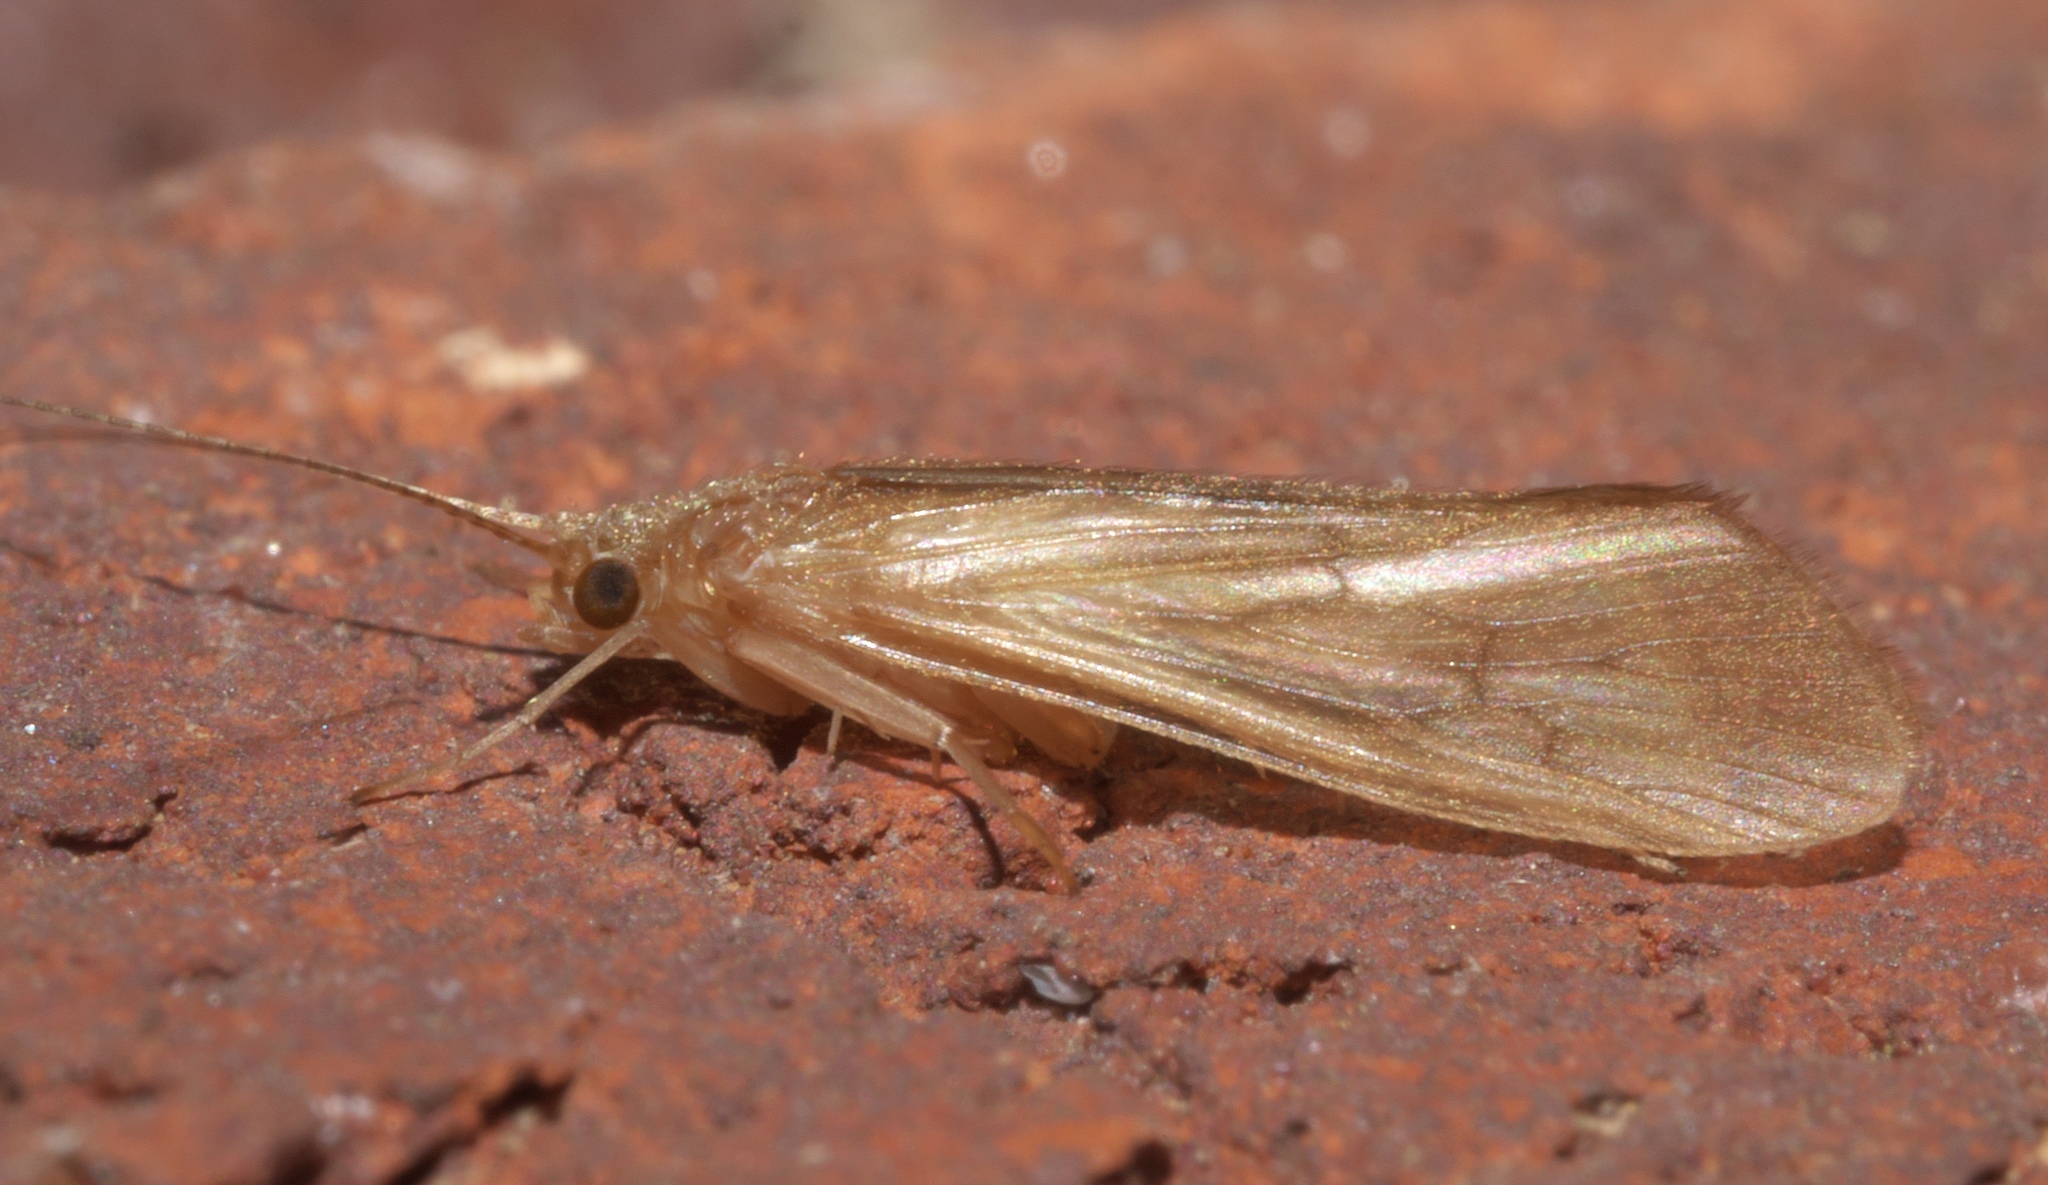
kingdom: Animalia
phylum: Arthropoda
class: Insecta
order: Trichoptera
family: Hydropsychidae
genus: Potamyia
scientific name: Potamyia flava
